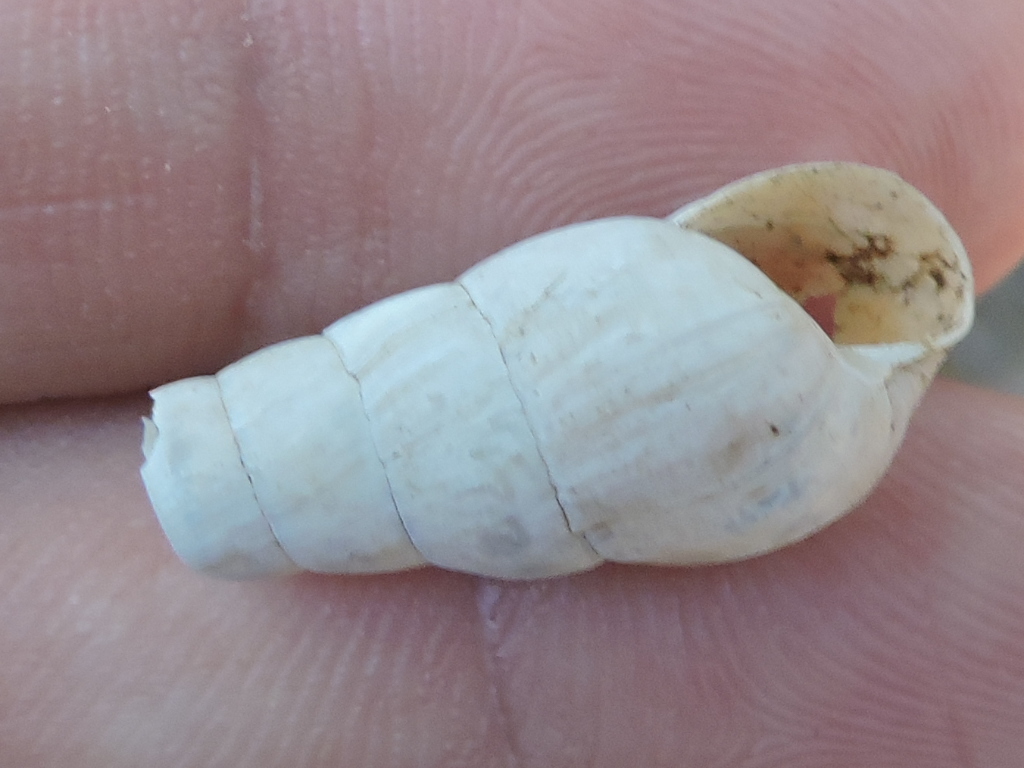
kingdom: Animalia
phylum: Mollusca
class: Gastropoda
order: Stylommatophora
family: Achatinidae
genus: Rumina
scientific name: Rumina decollata
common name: Decollate snail
